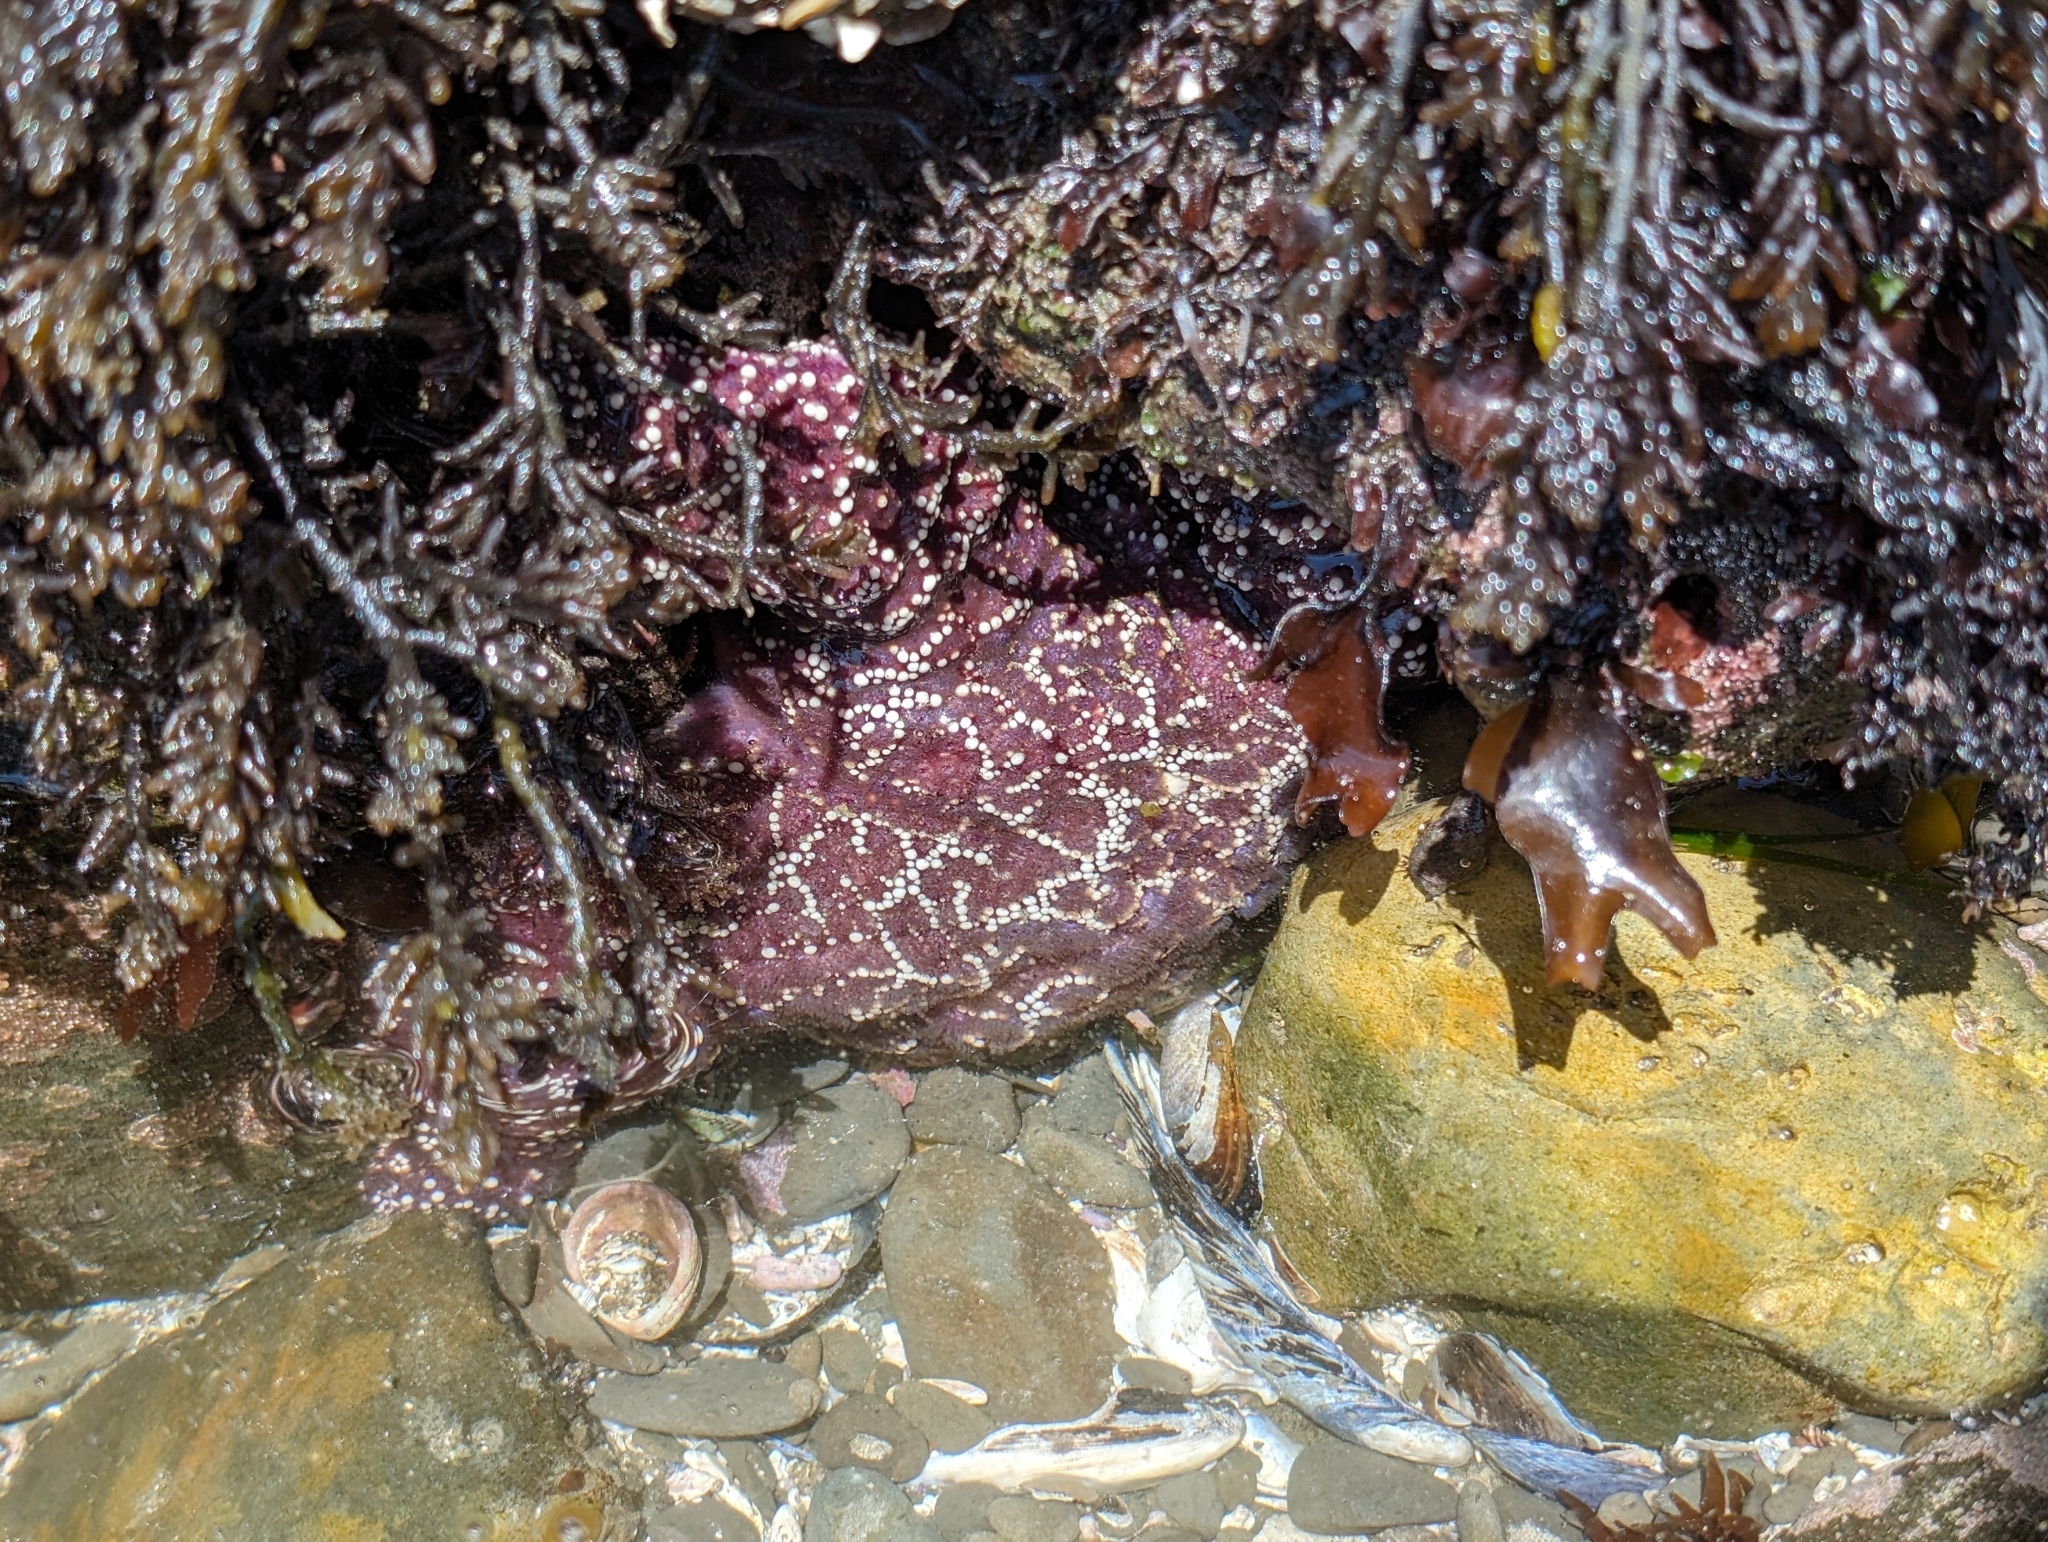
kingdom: Animalia
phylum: Echinodermata
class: Asteroidea
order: Forcipulatida
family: Asteriidae
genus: Pisaster
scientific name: Pisaster ochraceus
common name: Ochre stars
